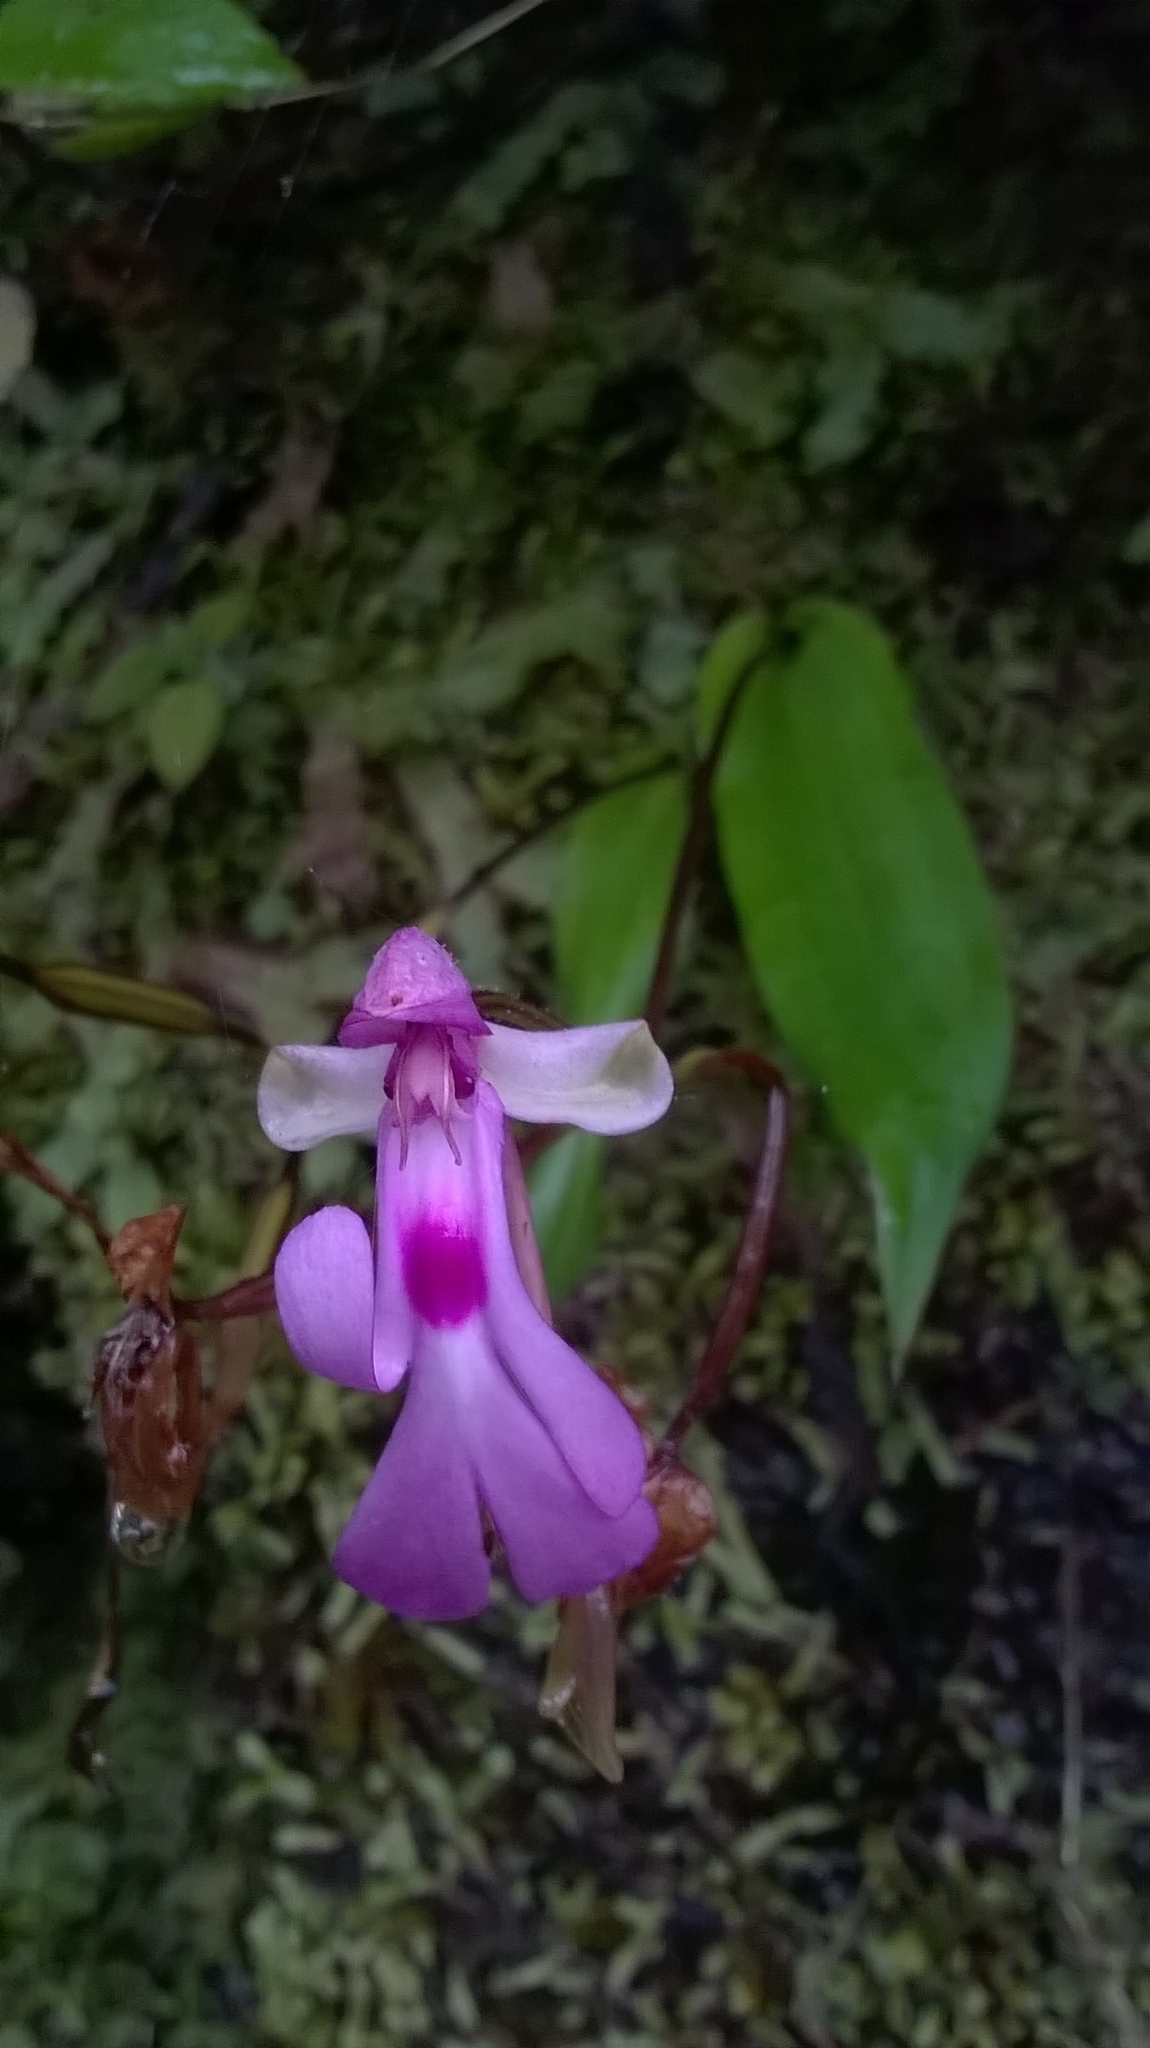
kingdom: Plantae
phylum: Tracheophyta
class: Liliopsida
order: Asparagales
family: Orchidaceae
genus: Cynorkis
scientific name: Cynorkis lowiana
